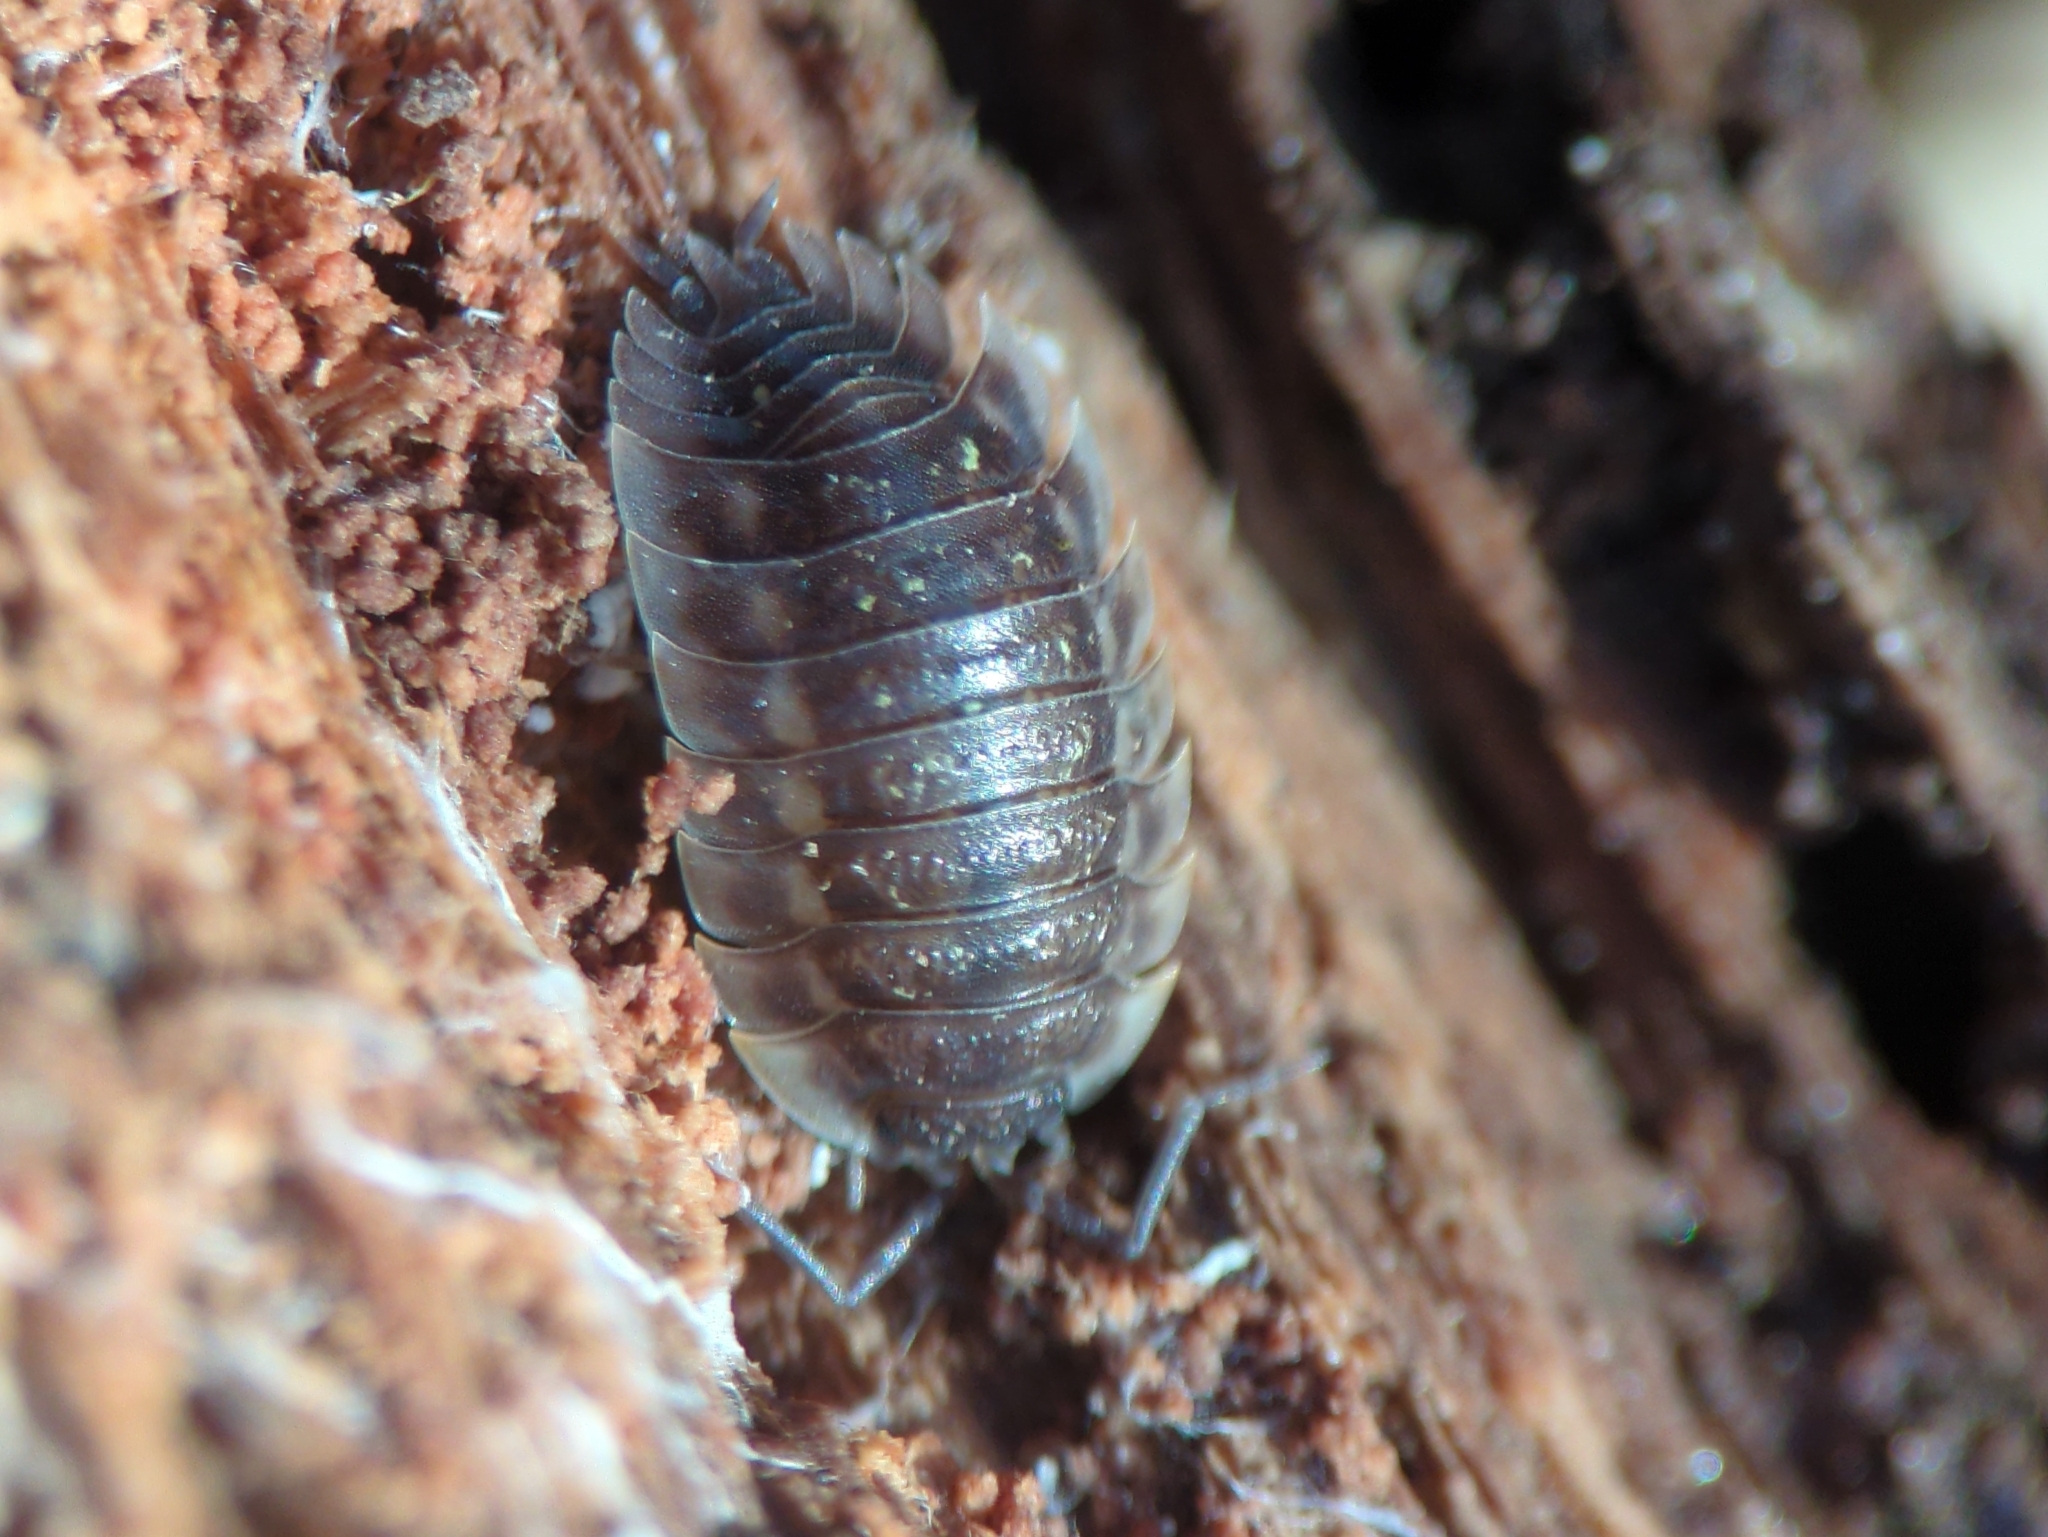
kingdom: Animalia
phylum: Arthropoda
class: Malacostraca
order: Isopoda
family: Oniscidae
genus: Oniscus
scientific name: Oniscus asellus
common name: Common shiny woodlouse
